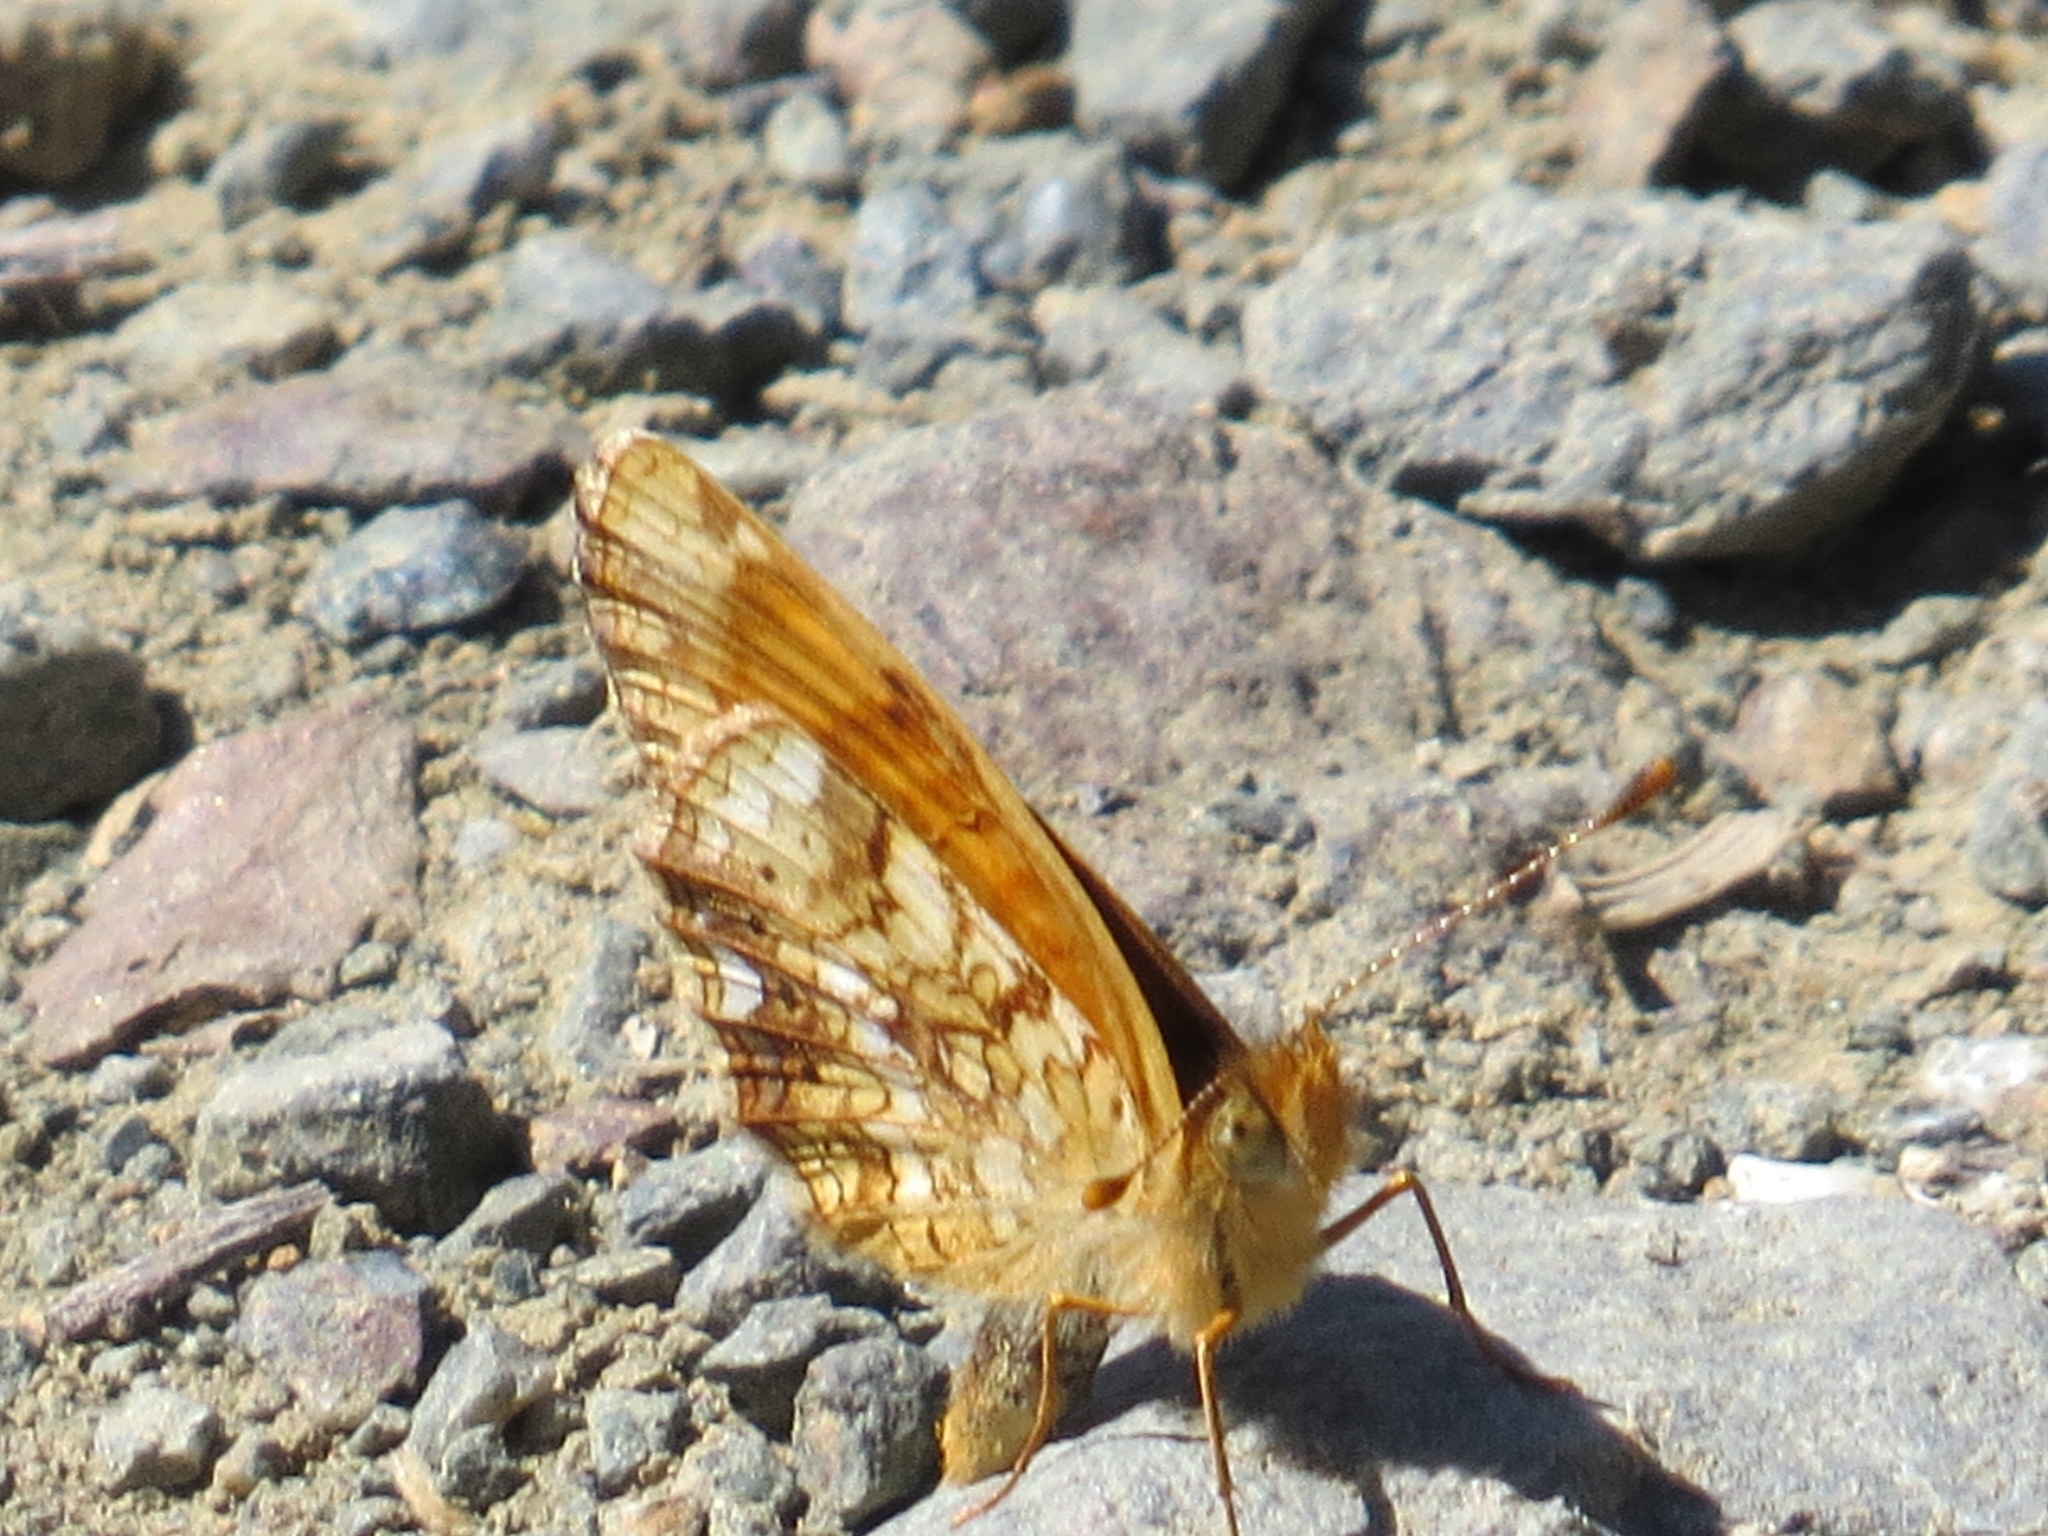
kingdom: Animalia
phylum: Arthropoda
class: Insecta
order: Lepidoptera
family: Nymphalidae
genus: Eresia
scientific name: Eresia aveyrona
